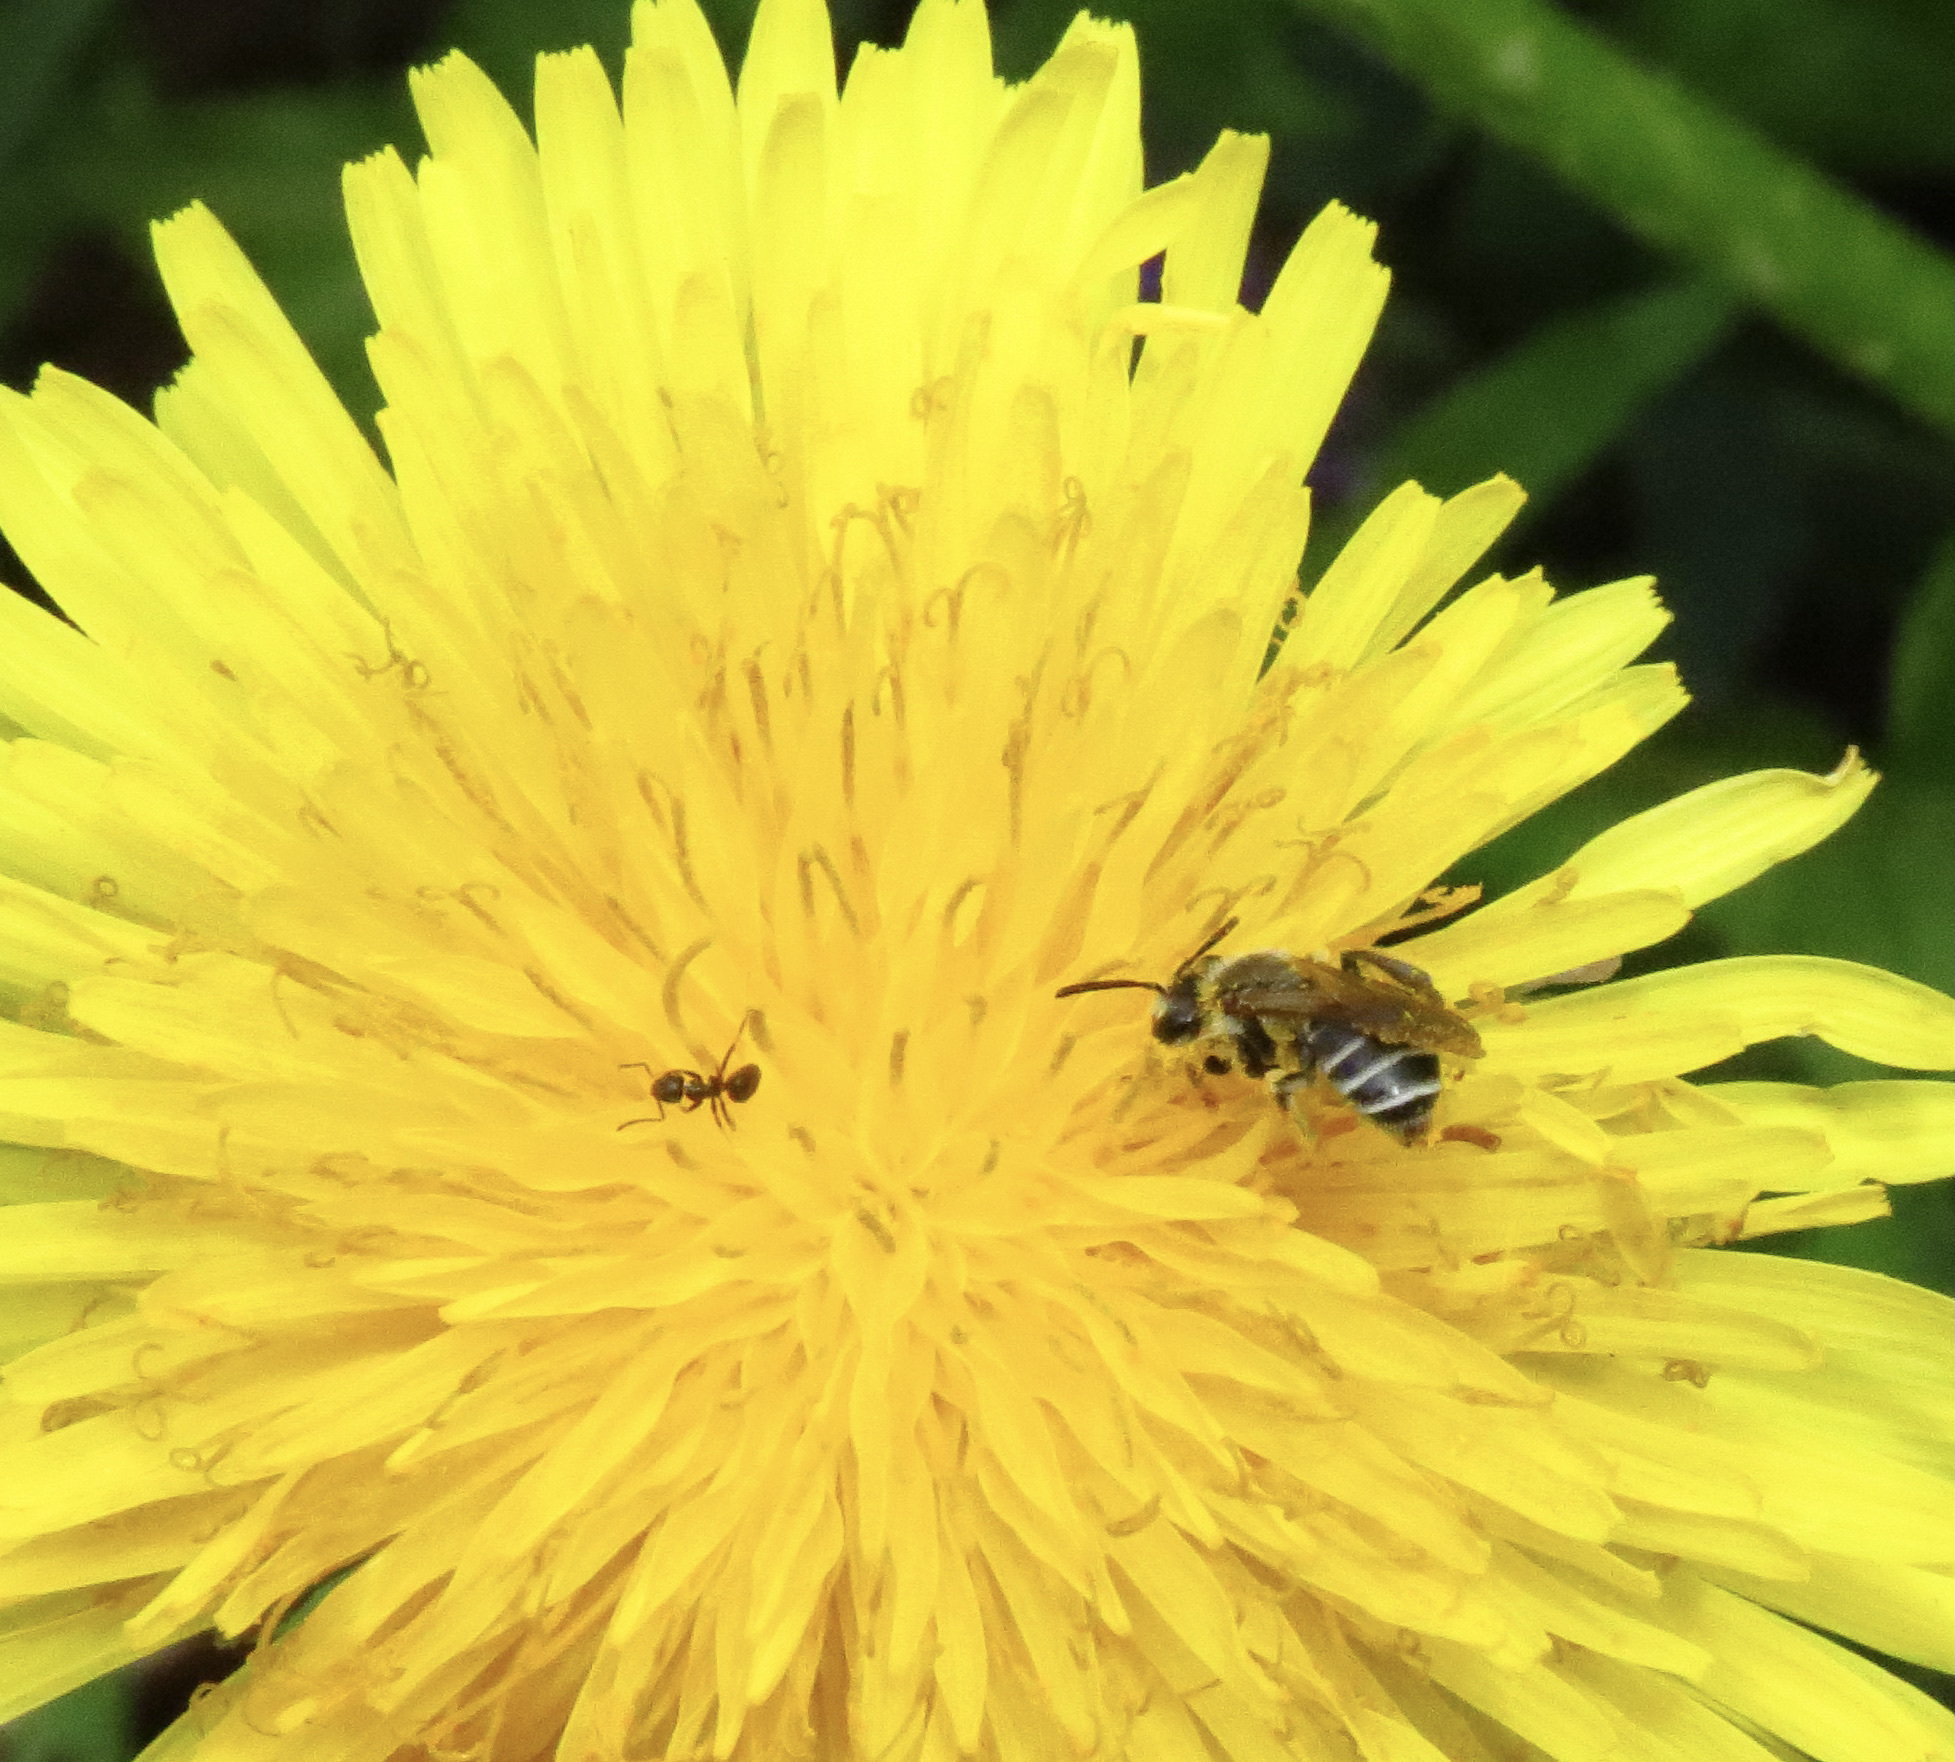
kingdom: Animalia
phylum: Arthropoda
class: Insecta
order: Hymenoptera
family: Andrenidae
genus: Andrena
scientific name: Andrena nasonii
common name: Nason's mining bee
